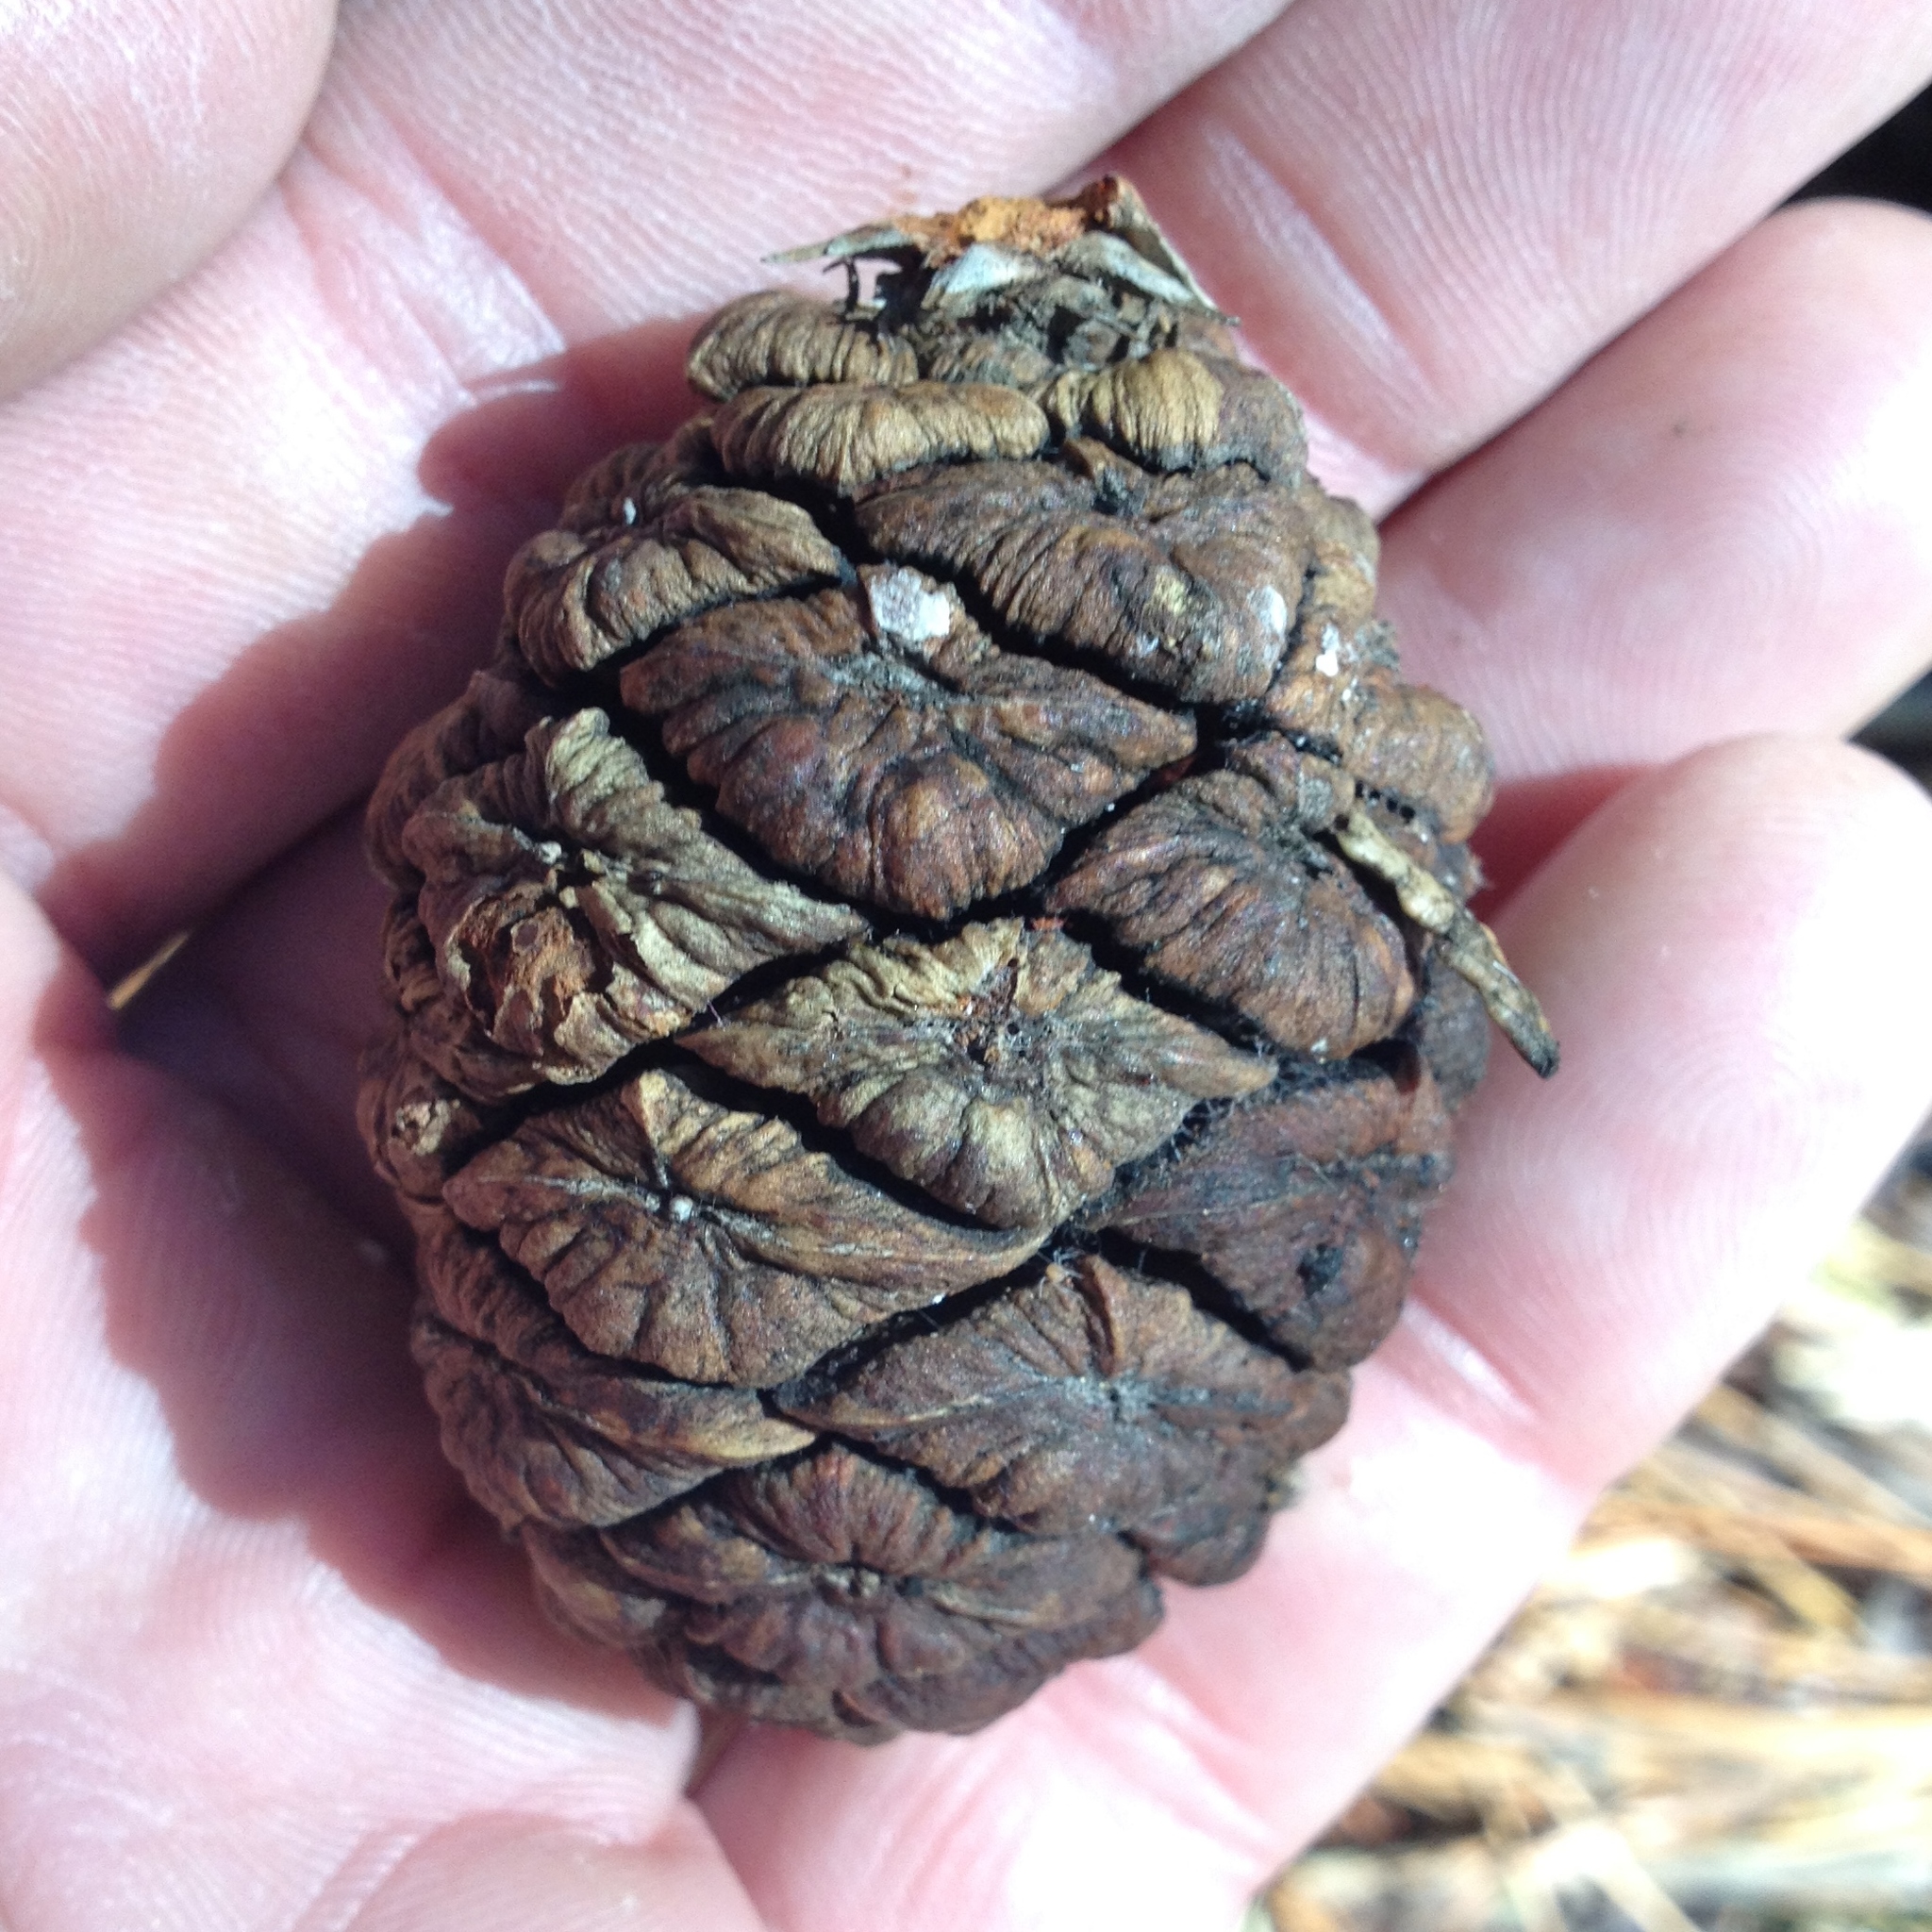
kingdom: Plantae
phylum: Tracheophyta
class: Pinopsida
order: Pinales
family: Cupressaceae
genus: Sequoiadendron
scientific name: Sequoiadendron giganteum
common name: Wellingtonia
